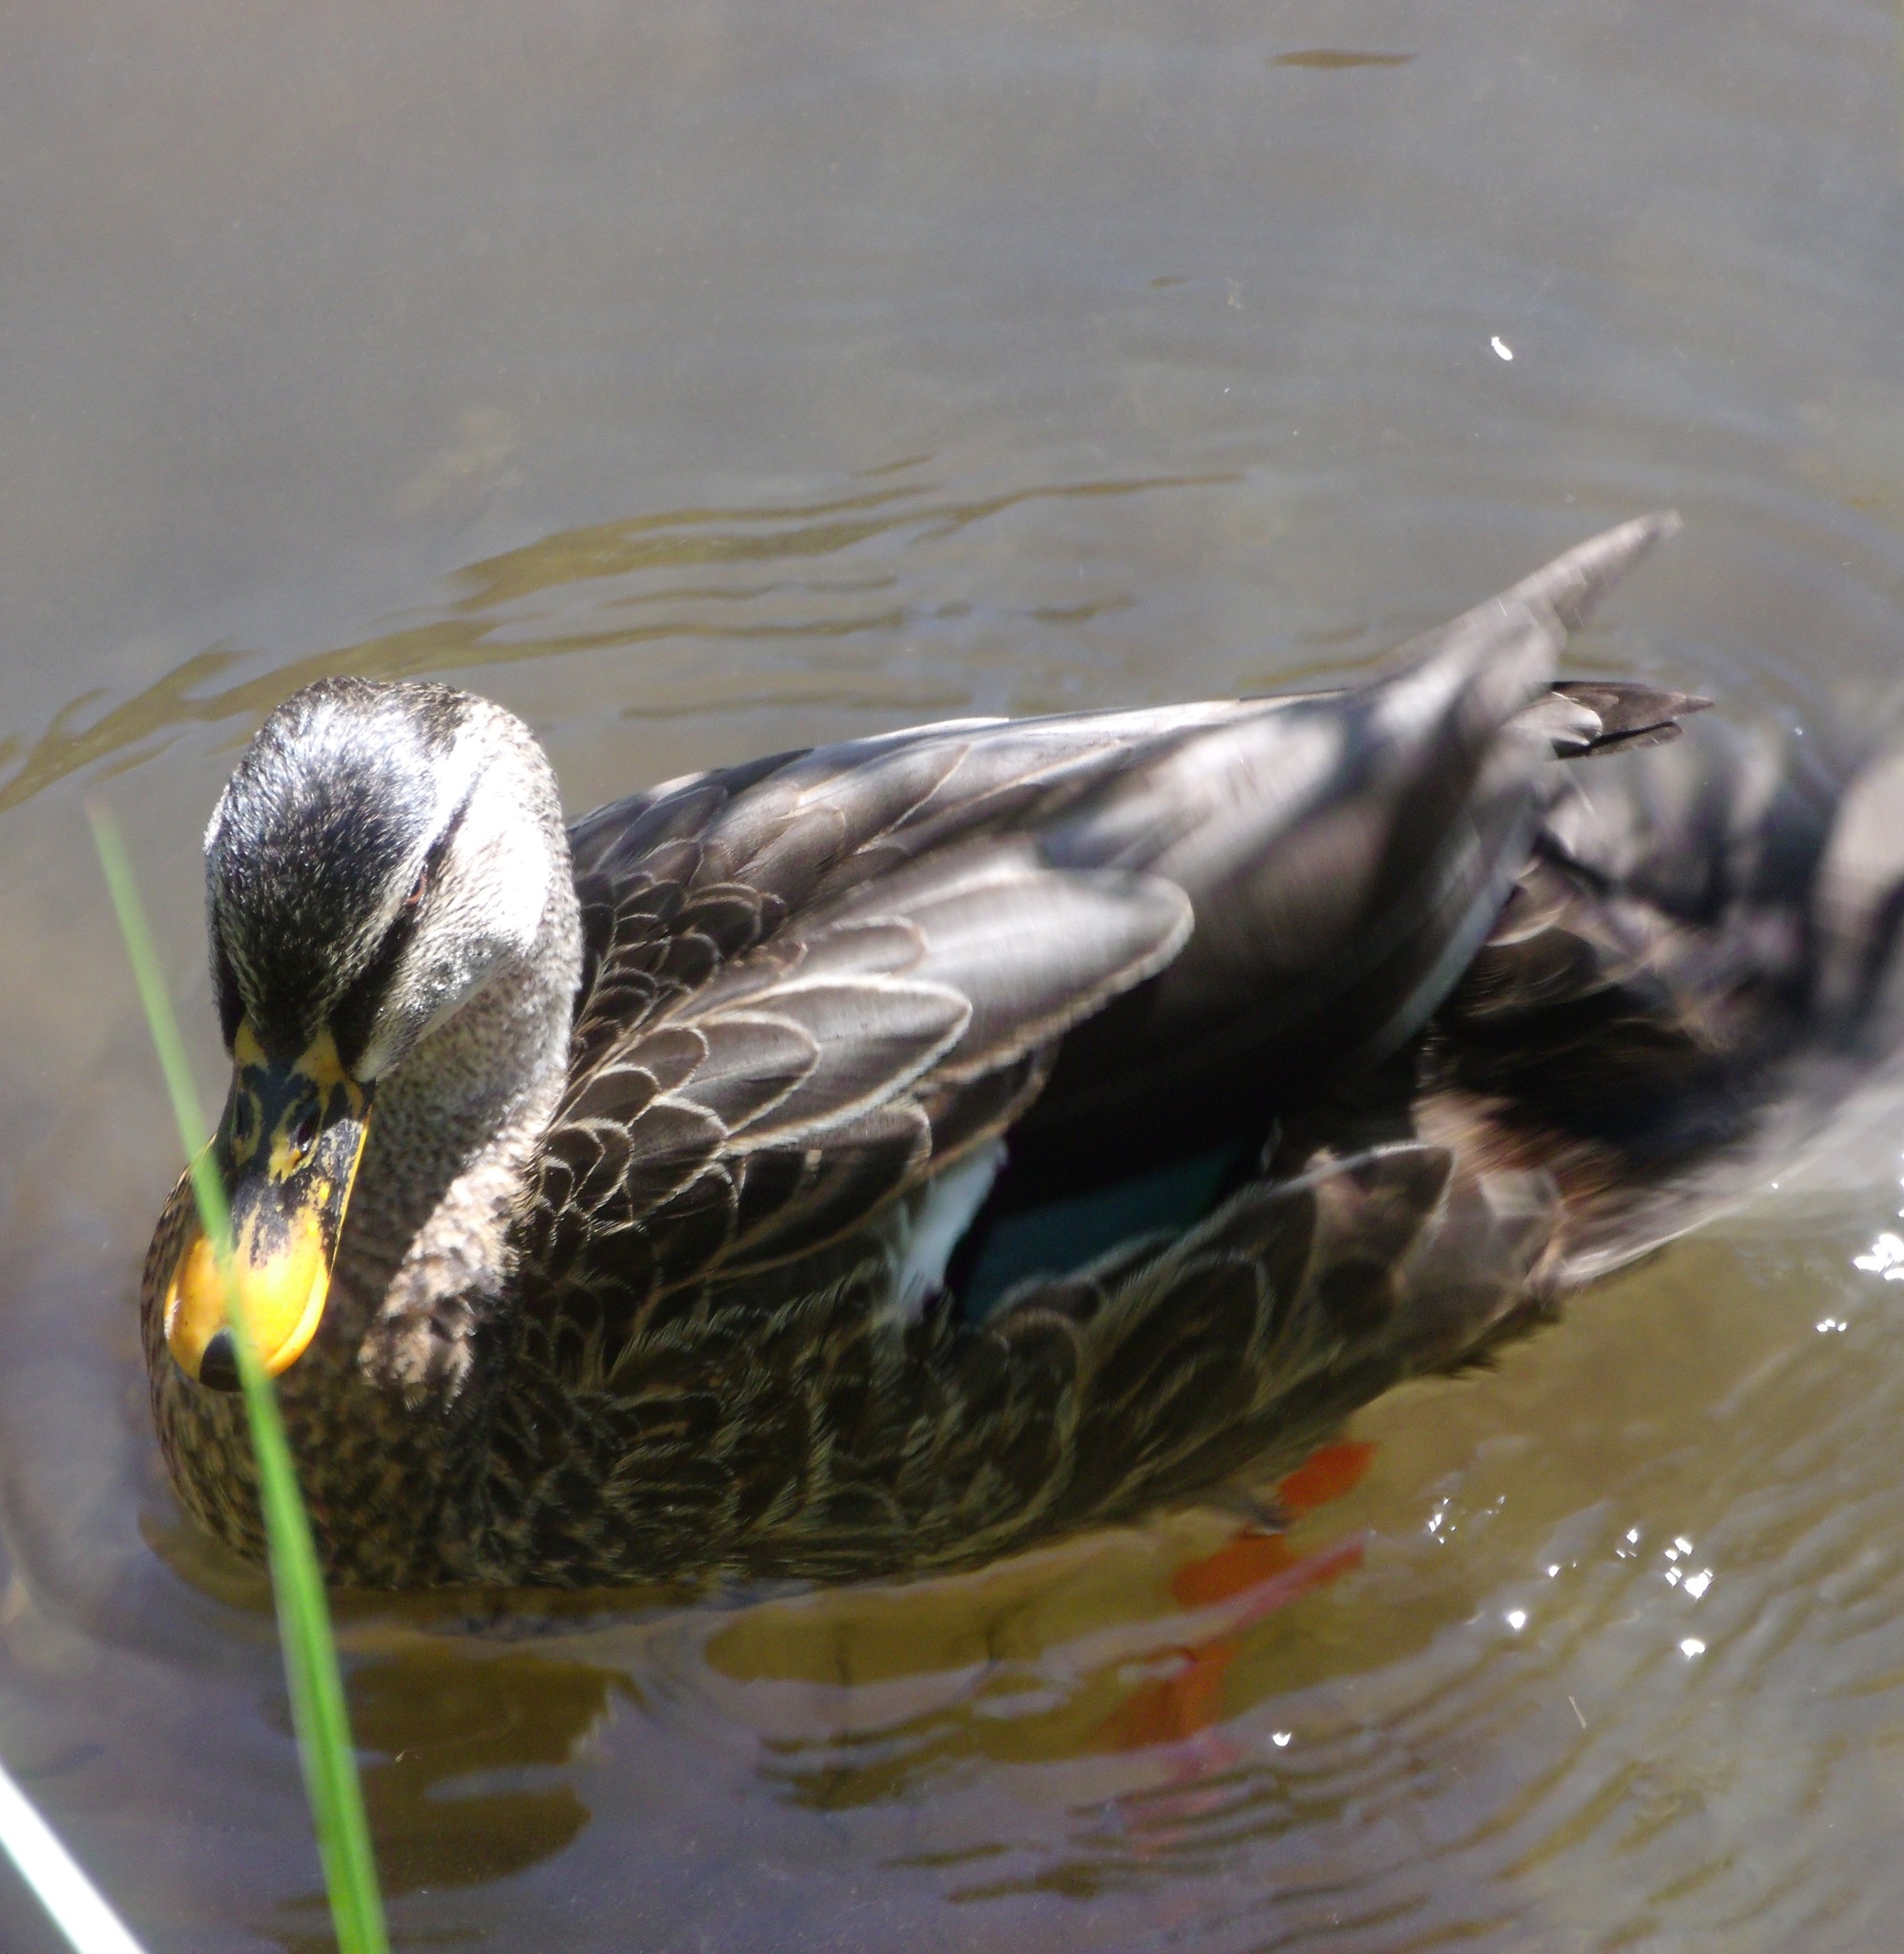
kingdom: Animalia
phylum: Chordata
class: Aves
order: Anseriformes
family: Anatidae
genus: Anas
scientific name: Anas
